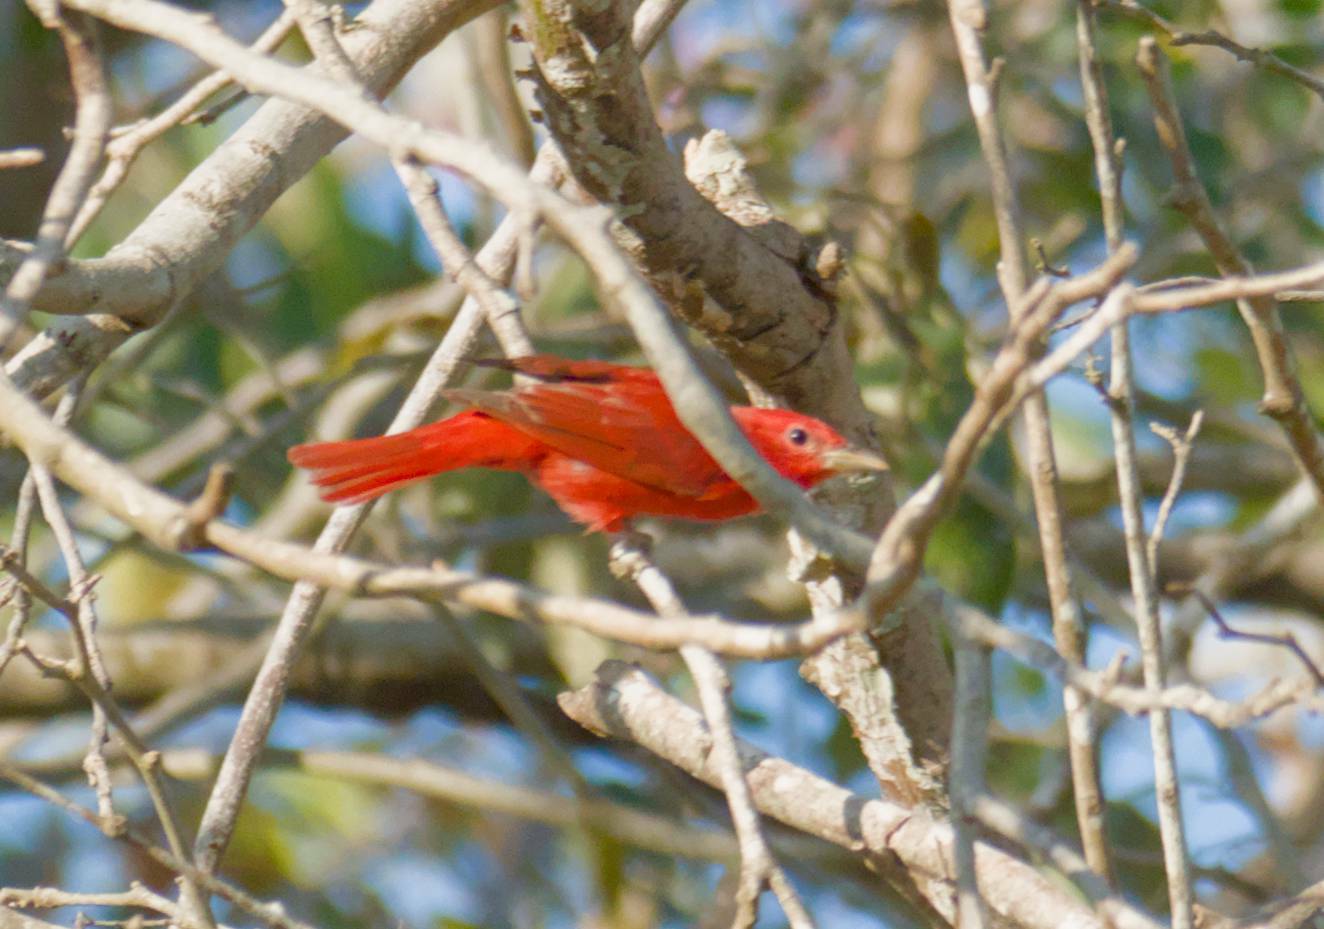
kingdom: Animalia
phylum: Chordata
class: Aves
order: Passeriformes
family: Cardinalidae
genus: Piranga
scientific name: Piranga rubra
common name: Summer tanager
